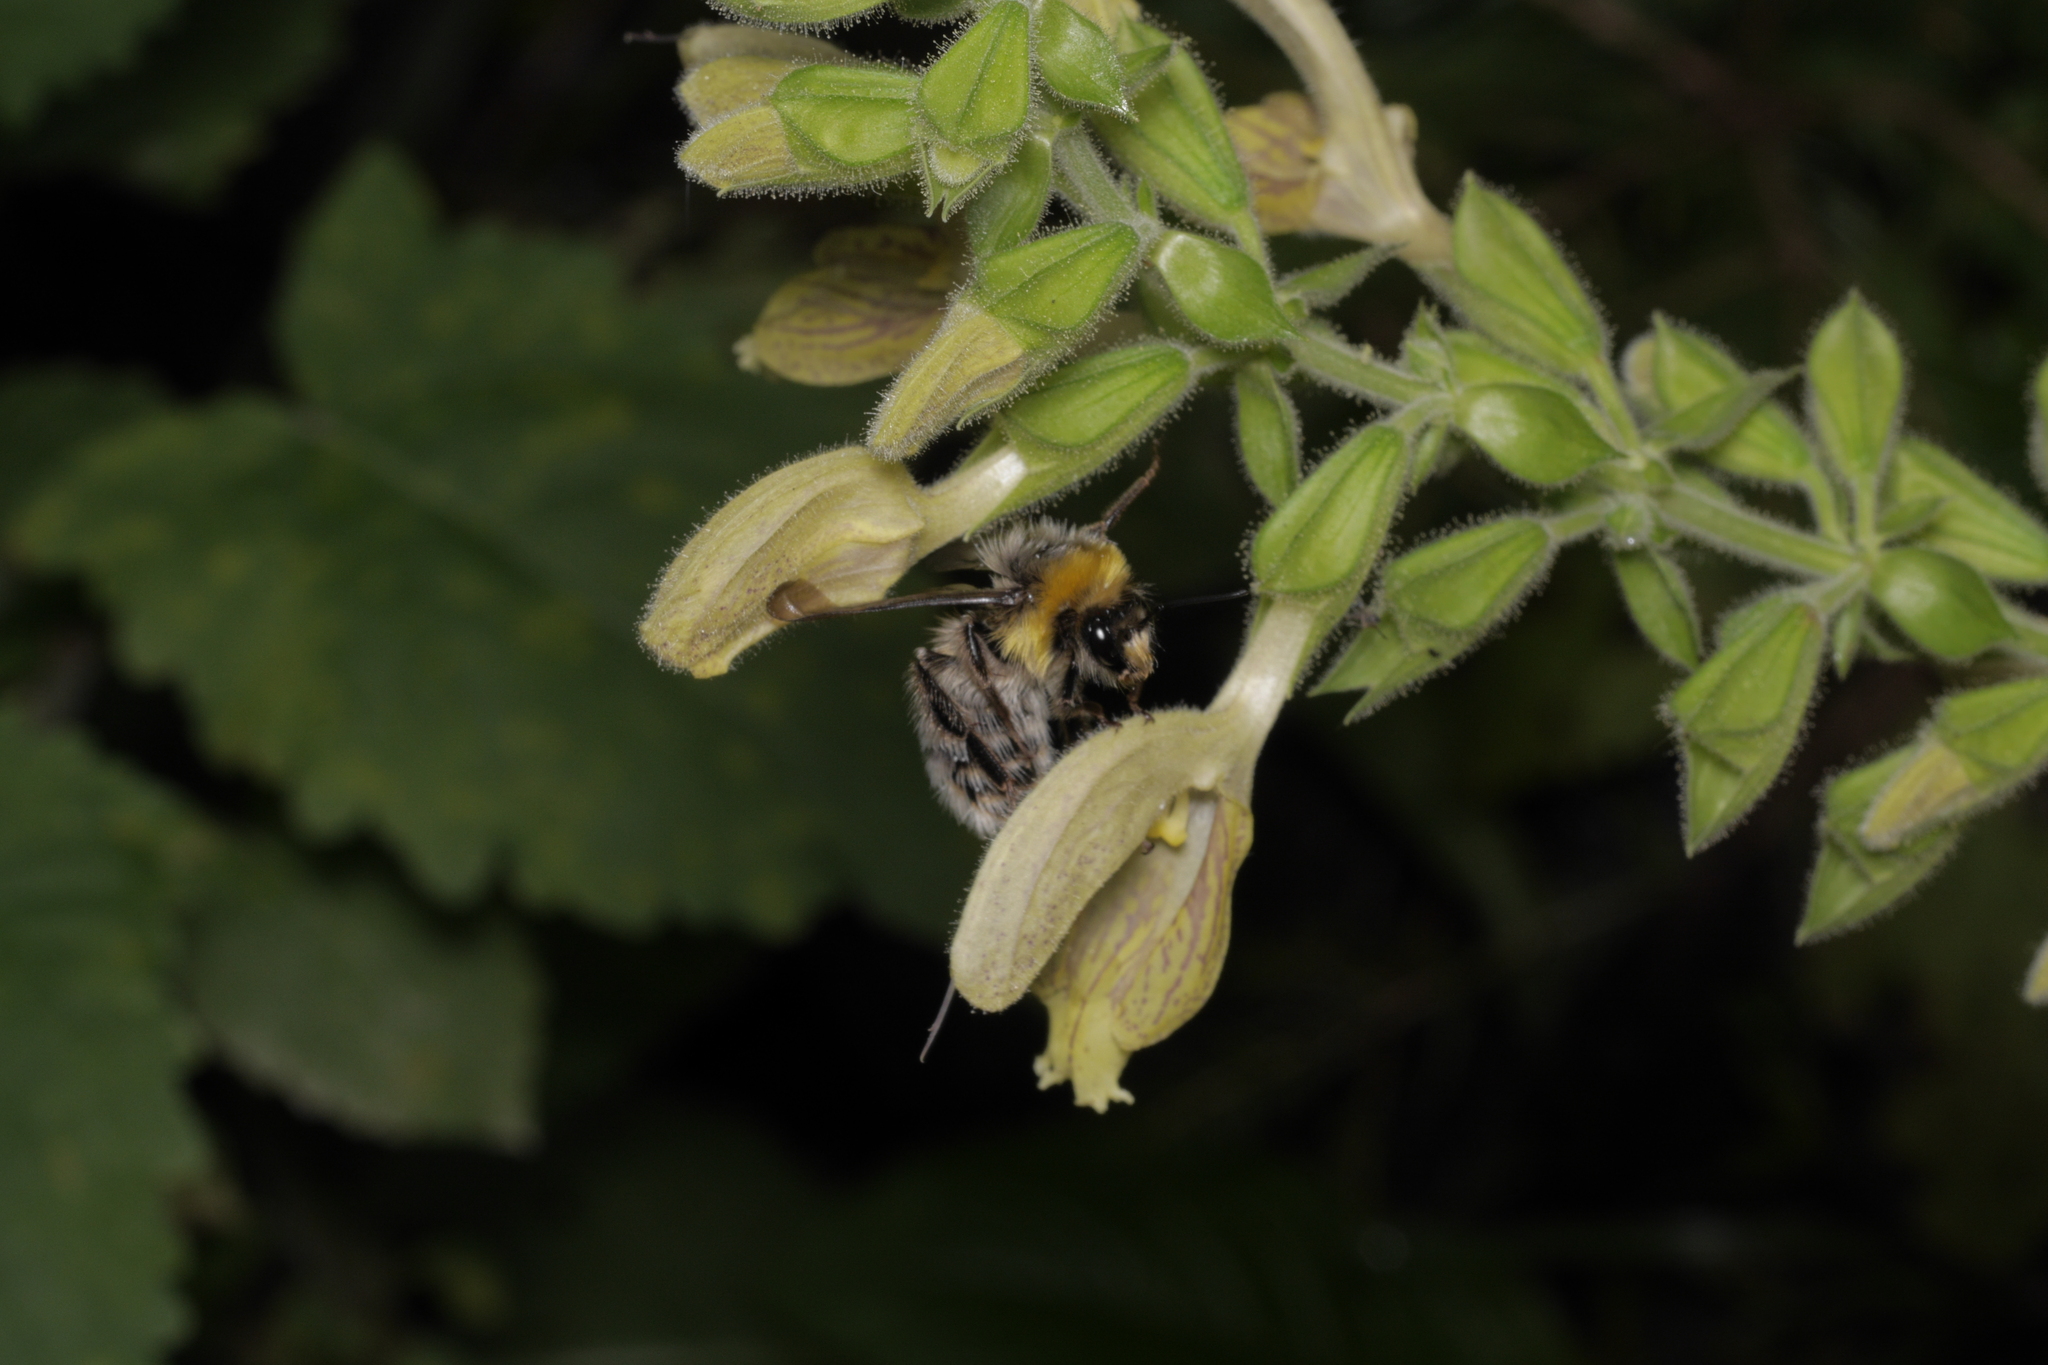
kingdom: Animalia
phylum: Arthropoda
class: Insecta
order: Hymenoptera
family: Apidae
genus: Bombus
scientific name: Bombus lucorum
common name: White-tailed bumblebee
